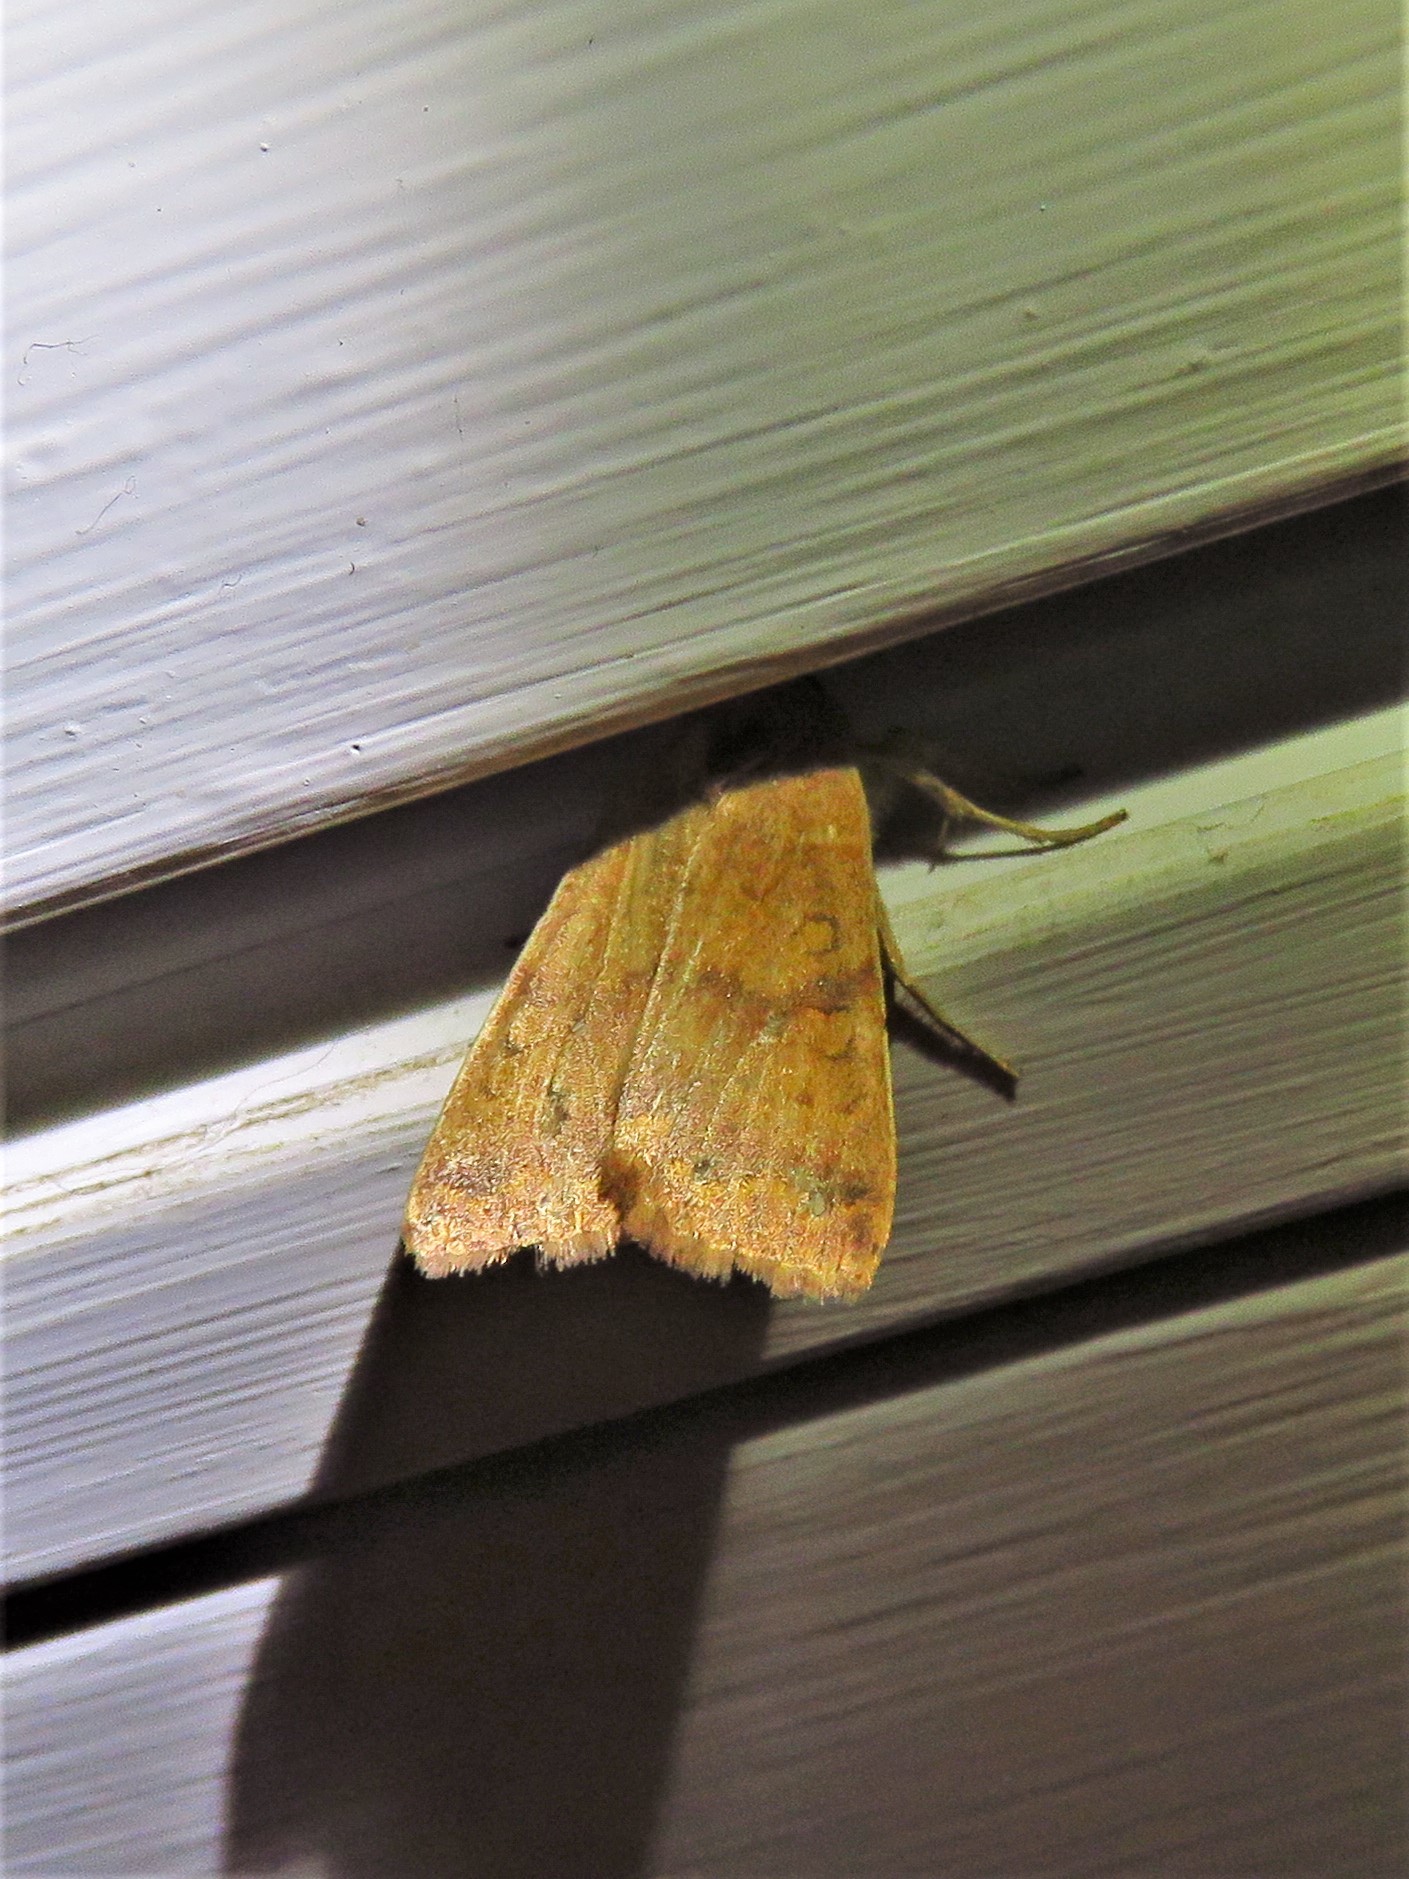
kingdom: Animalia
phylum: Arthropoda
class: Insecta
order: Lepidoptera
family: Noctuidae
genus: Agrochola
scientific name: Agrochola bicolorago
